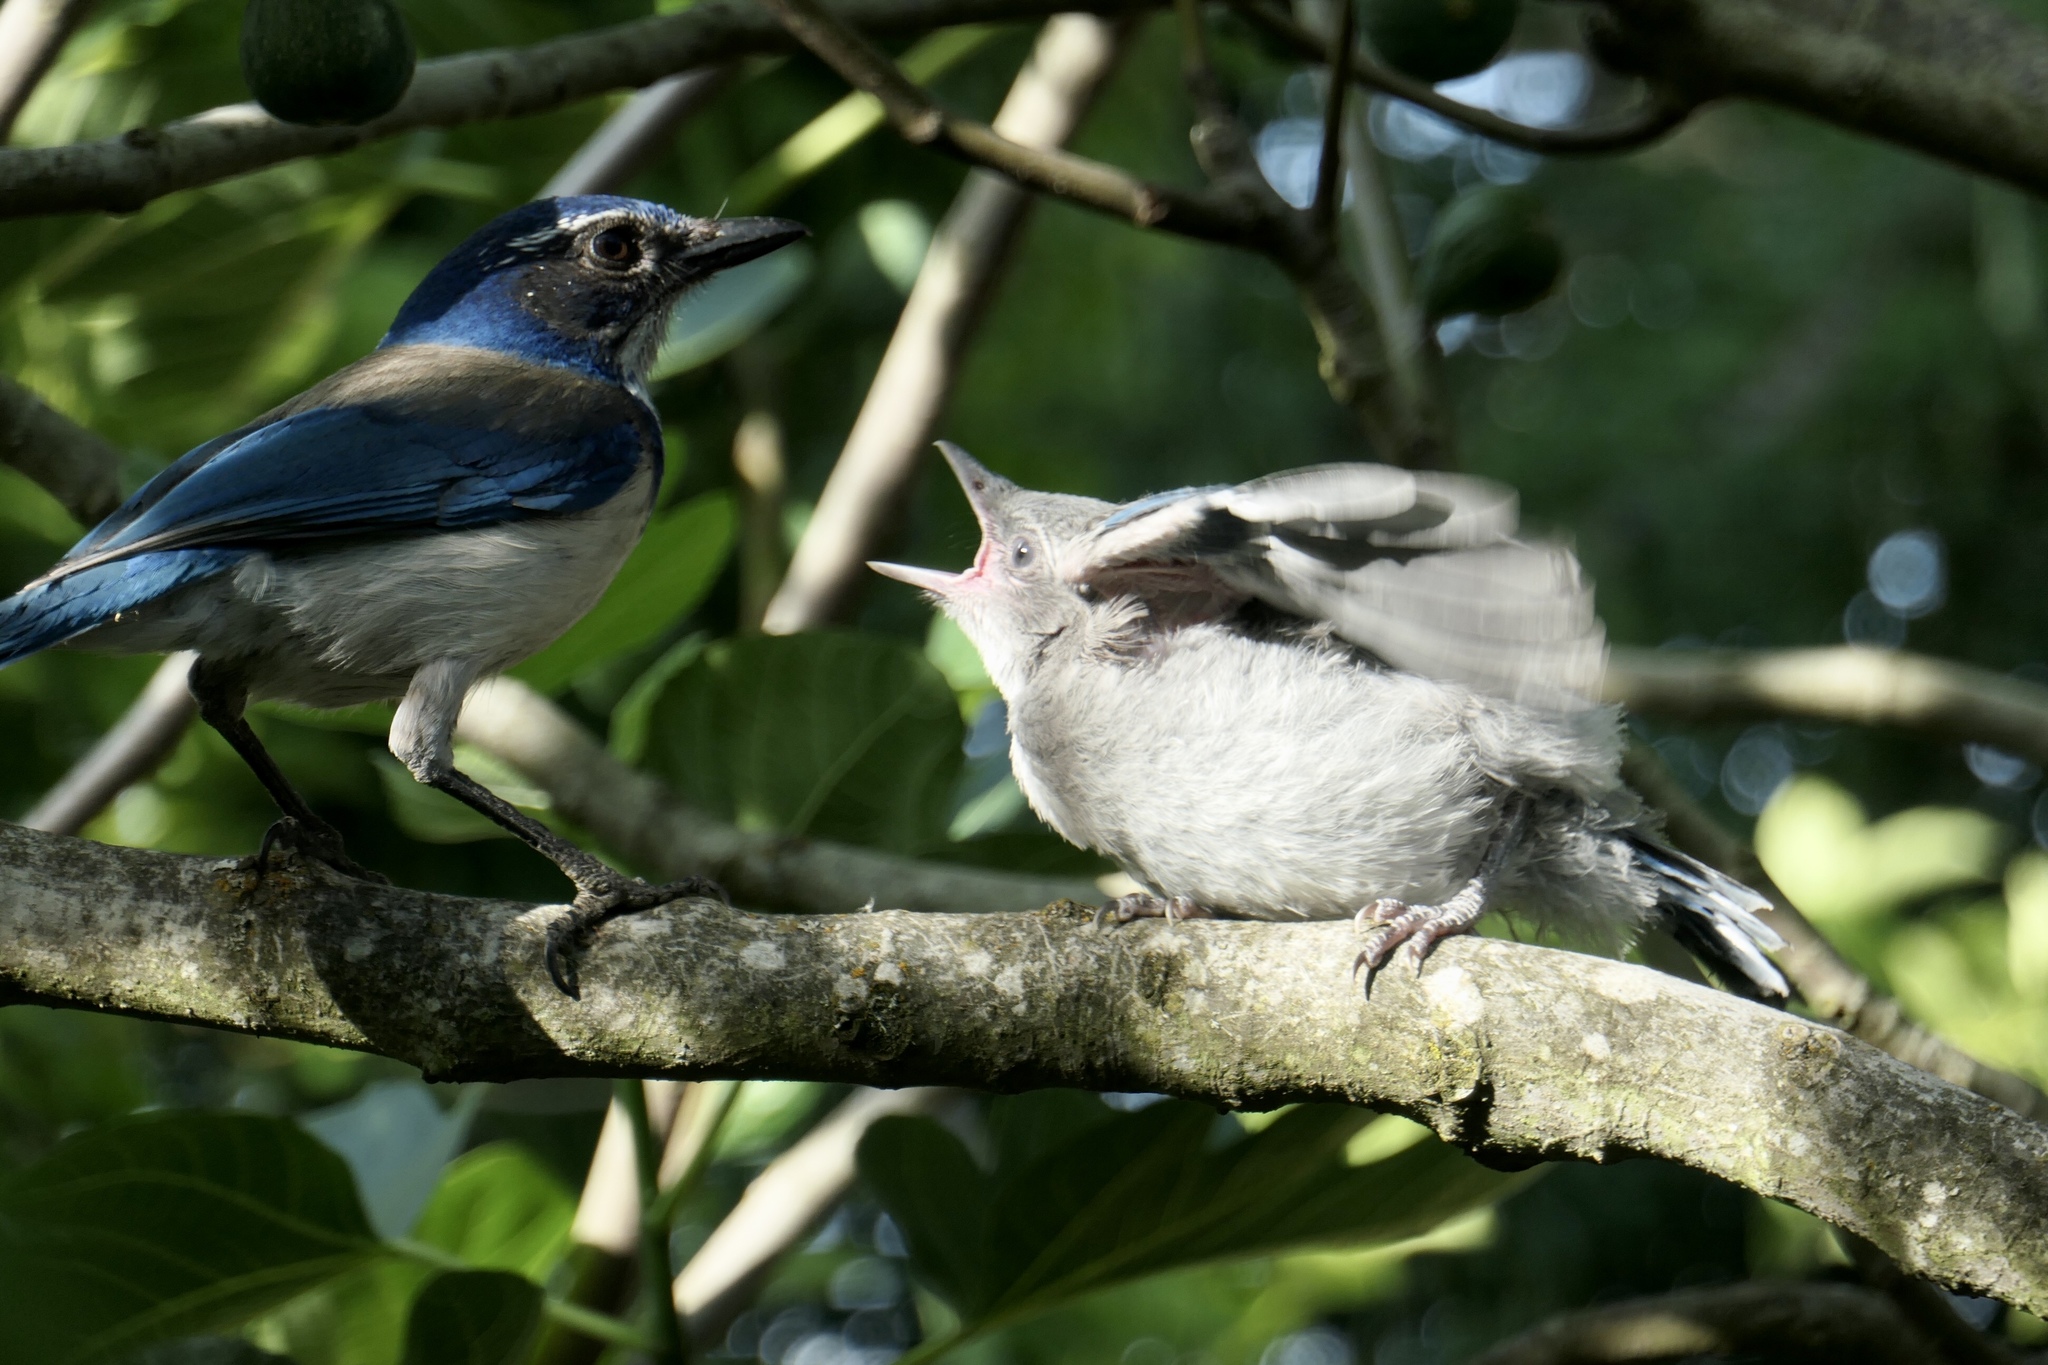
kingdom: Animalia
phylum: Chordata
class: Aves
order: Passeriformes
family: Corvidae
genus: Aphelocoma
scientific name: Aphelocoma californica
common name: California scrub-jay
